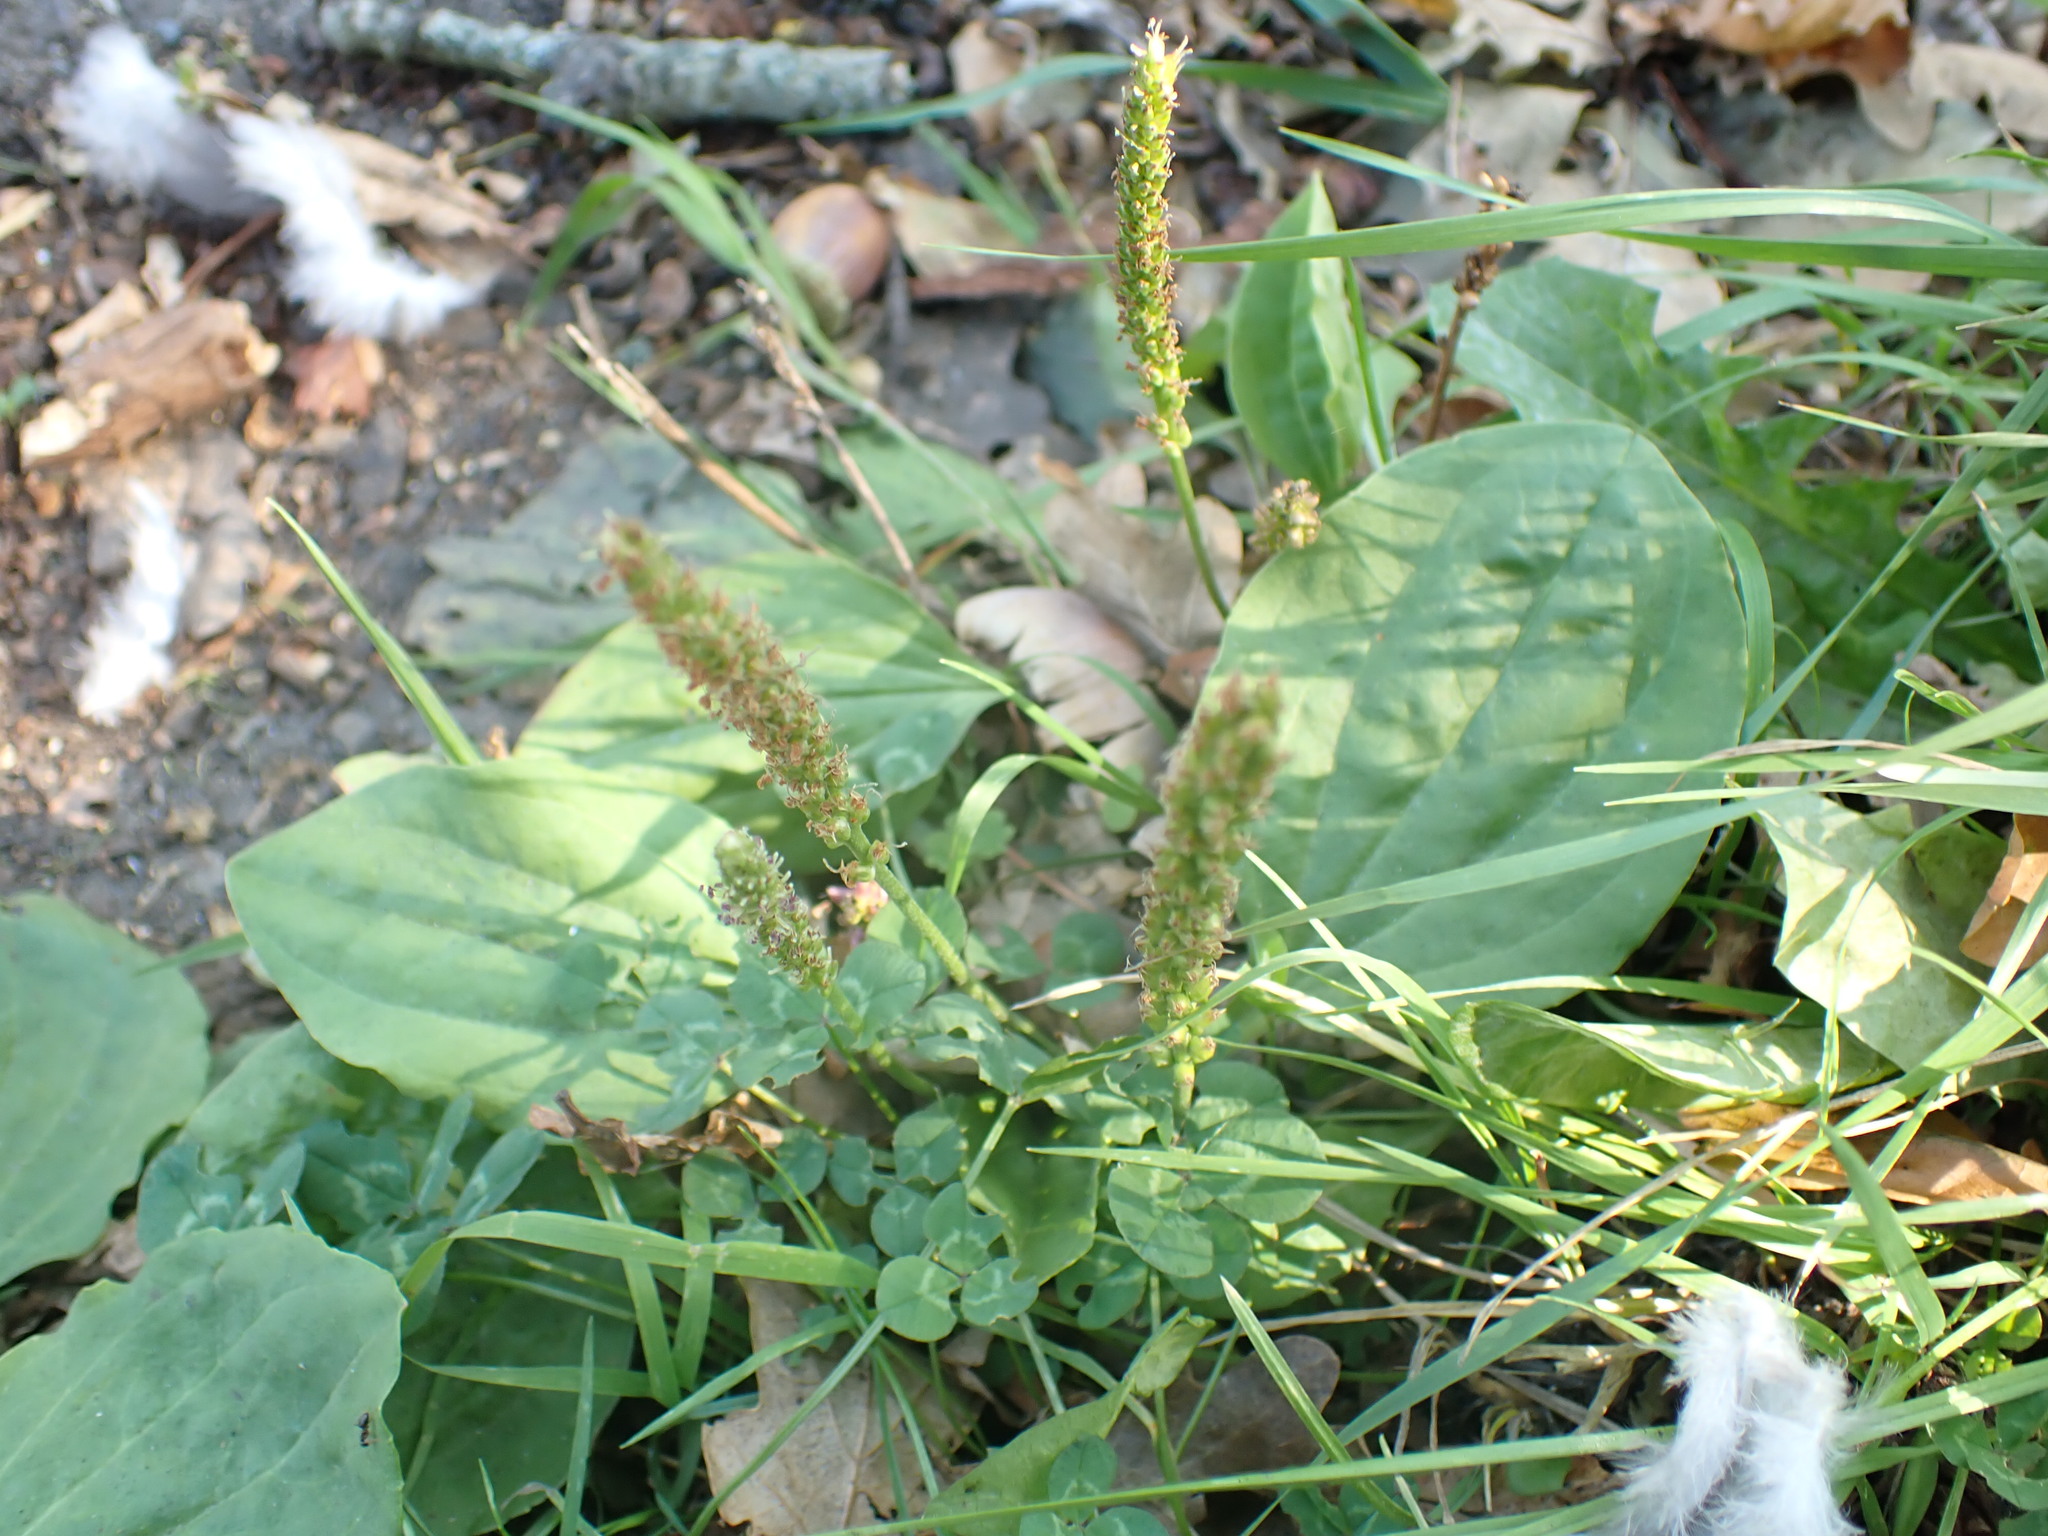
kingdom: Plantae
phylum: Tracheophyta
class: Magnoliopsida
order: Lamiales
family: Plantaginaceae
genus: Plantago
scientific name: Plantago major
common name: Common plantain
